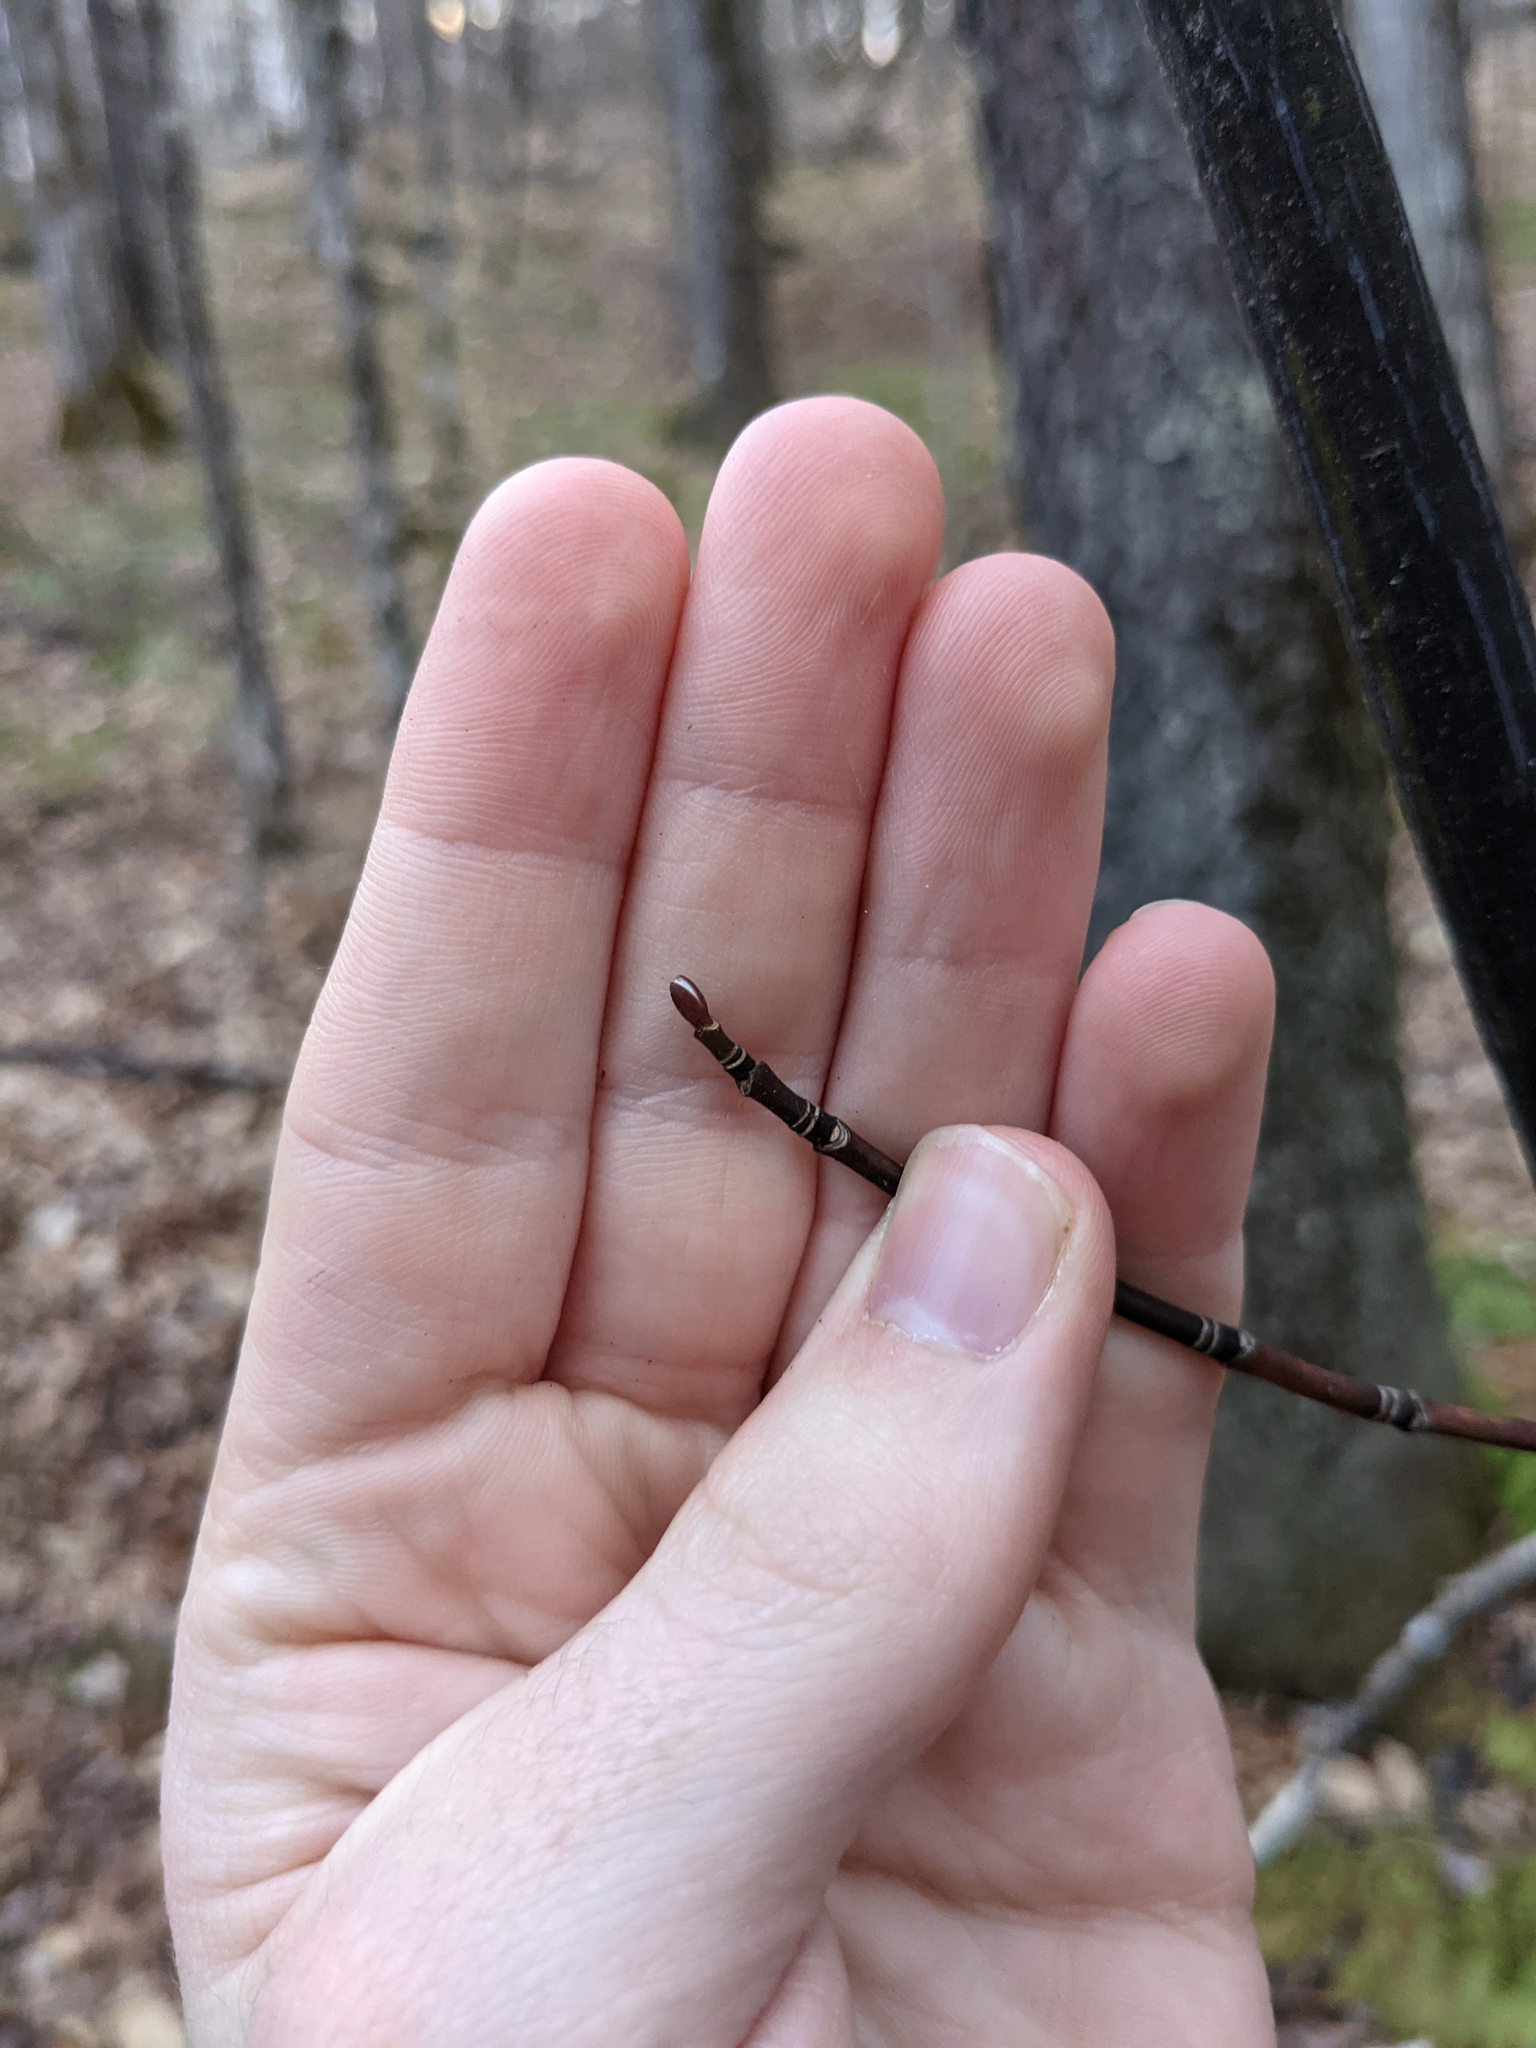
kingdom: Plantae
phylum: Tracheophyta
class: Magnoliopsida
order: Sapindales
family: Sapindaceae
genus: Acer
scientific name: Acer pensylvanicum
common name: Moosewood
